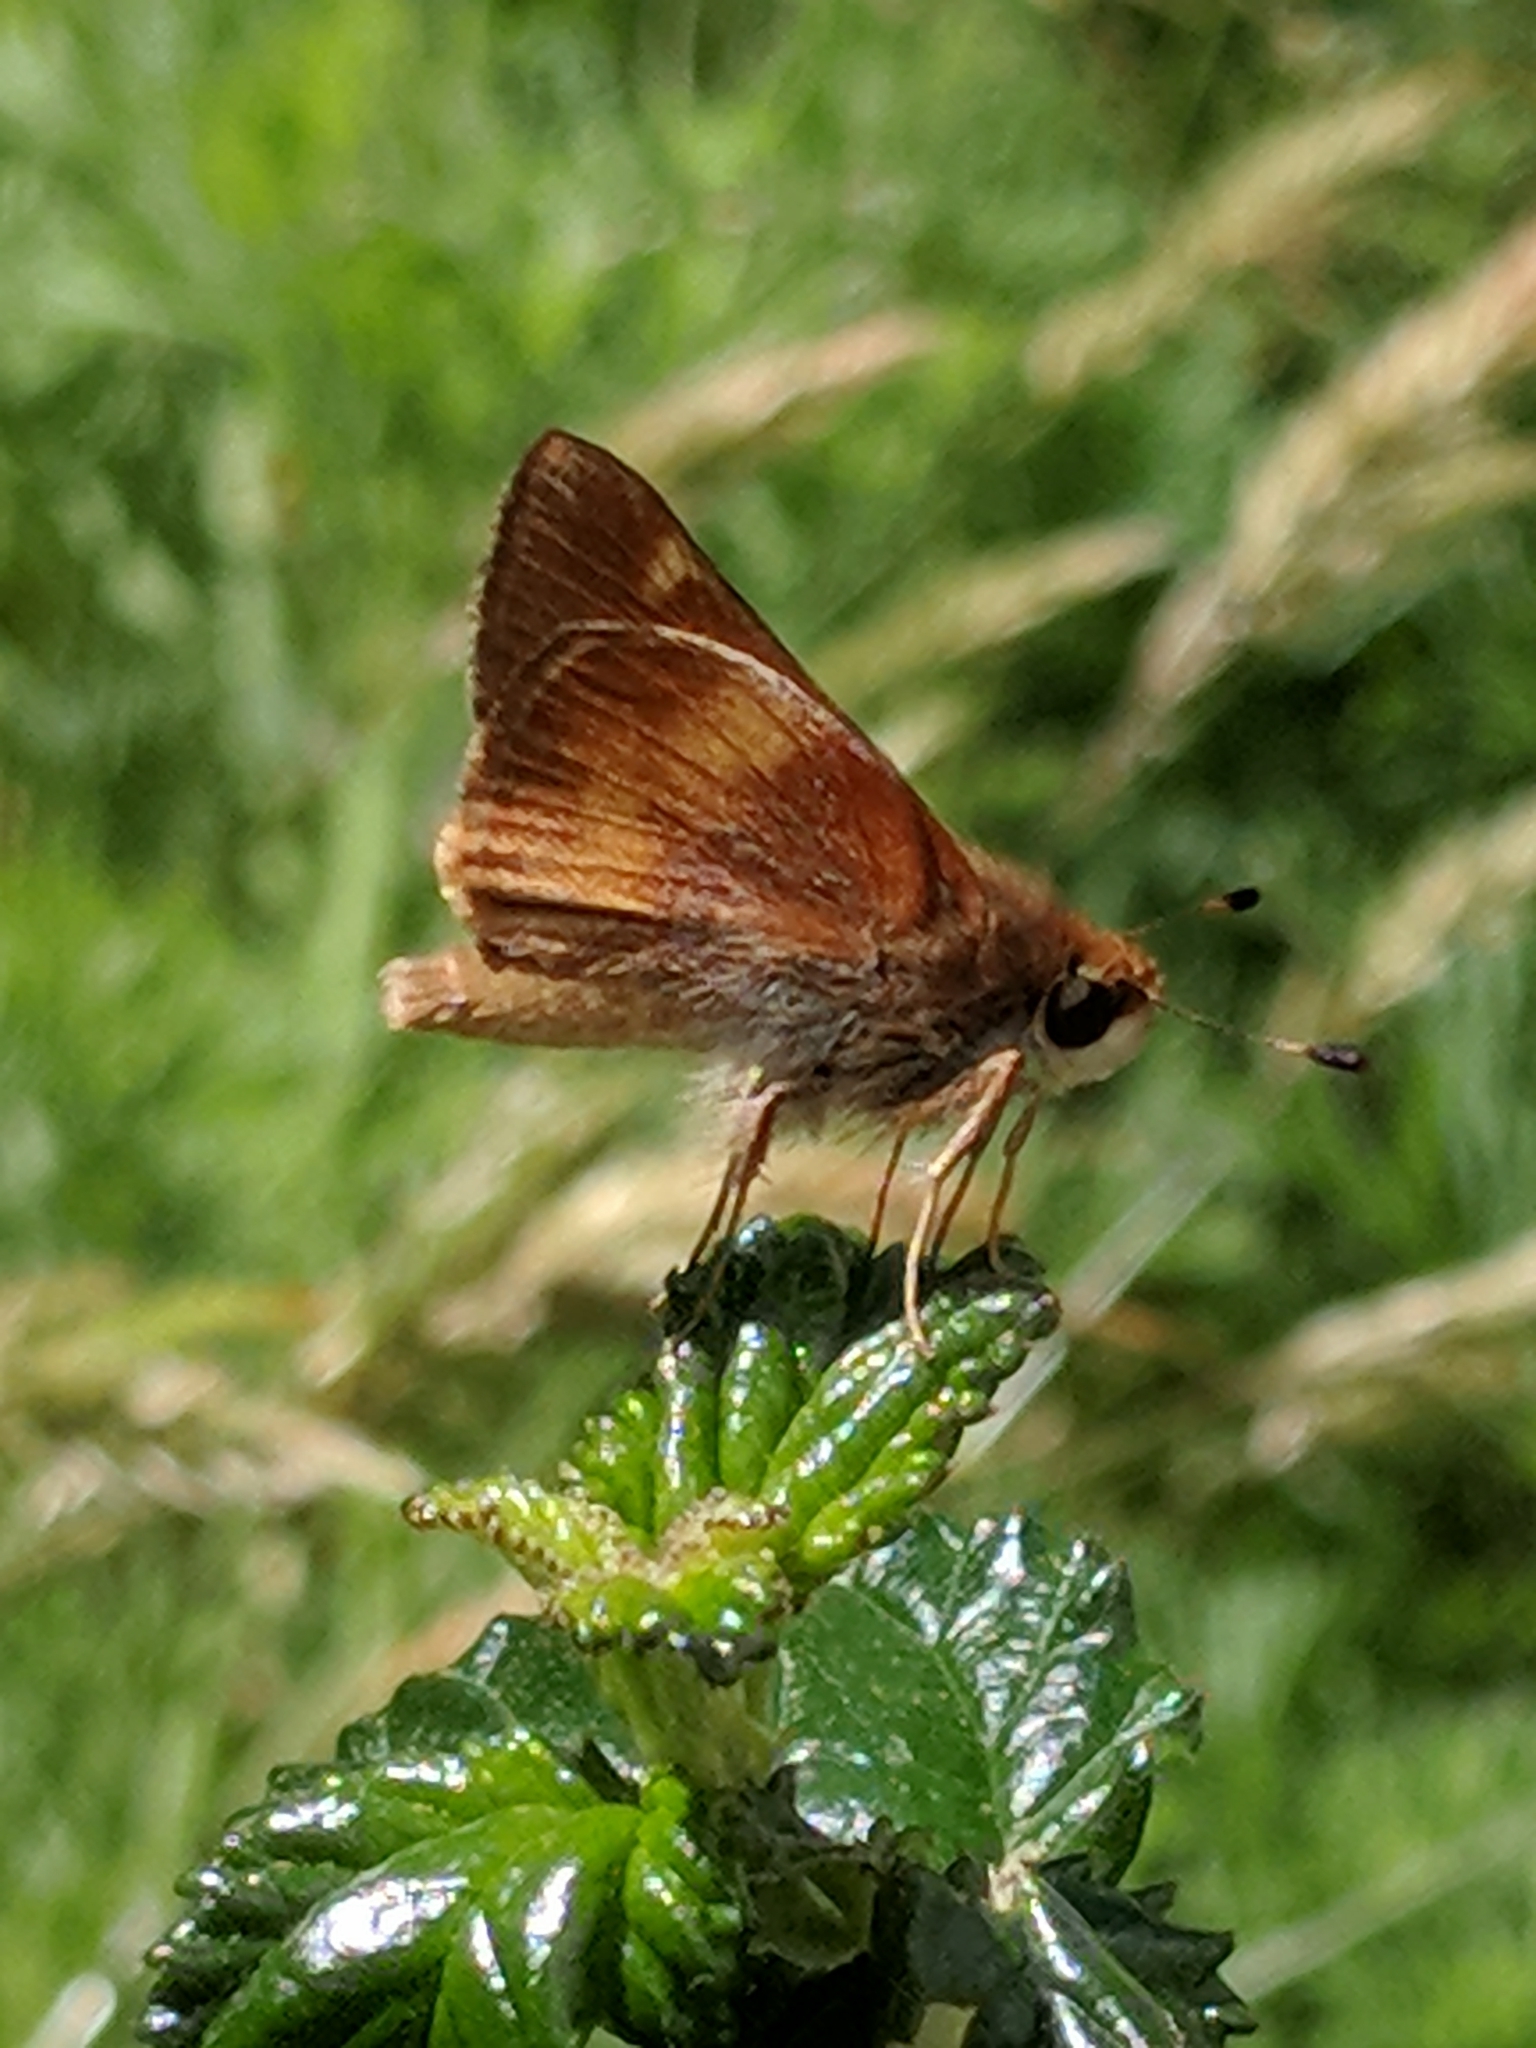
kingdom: Animalia
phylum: Arthropoda
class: Insecta
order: Lepidoptera
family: Hesperiidae
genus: Lon
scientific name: Lon melane
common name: Umber skipper
